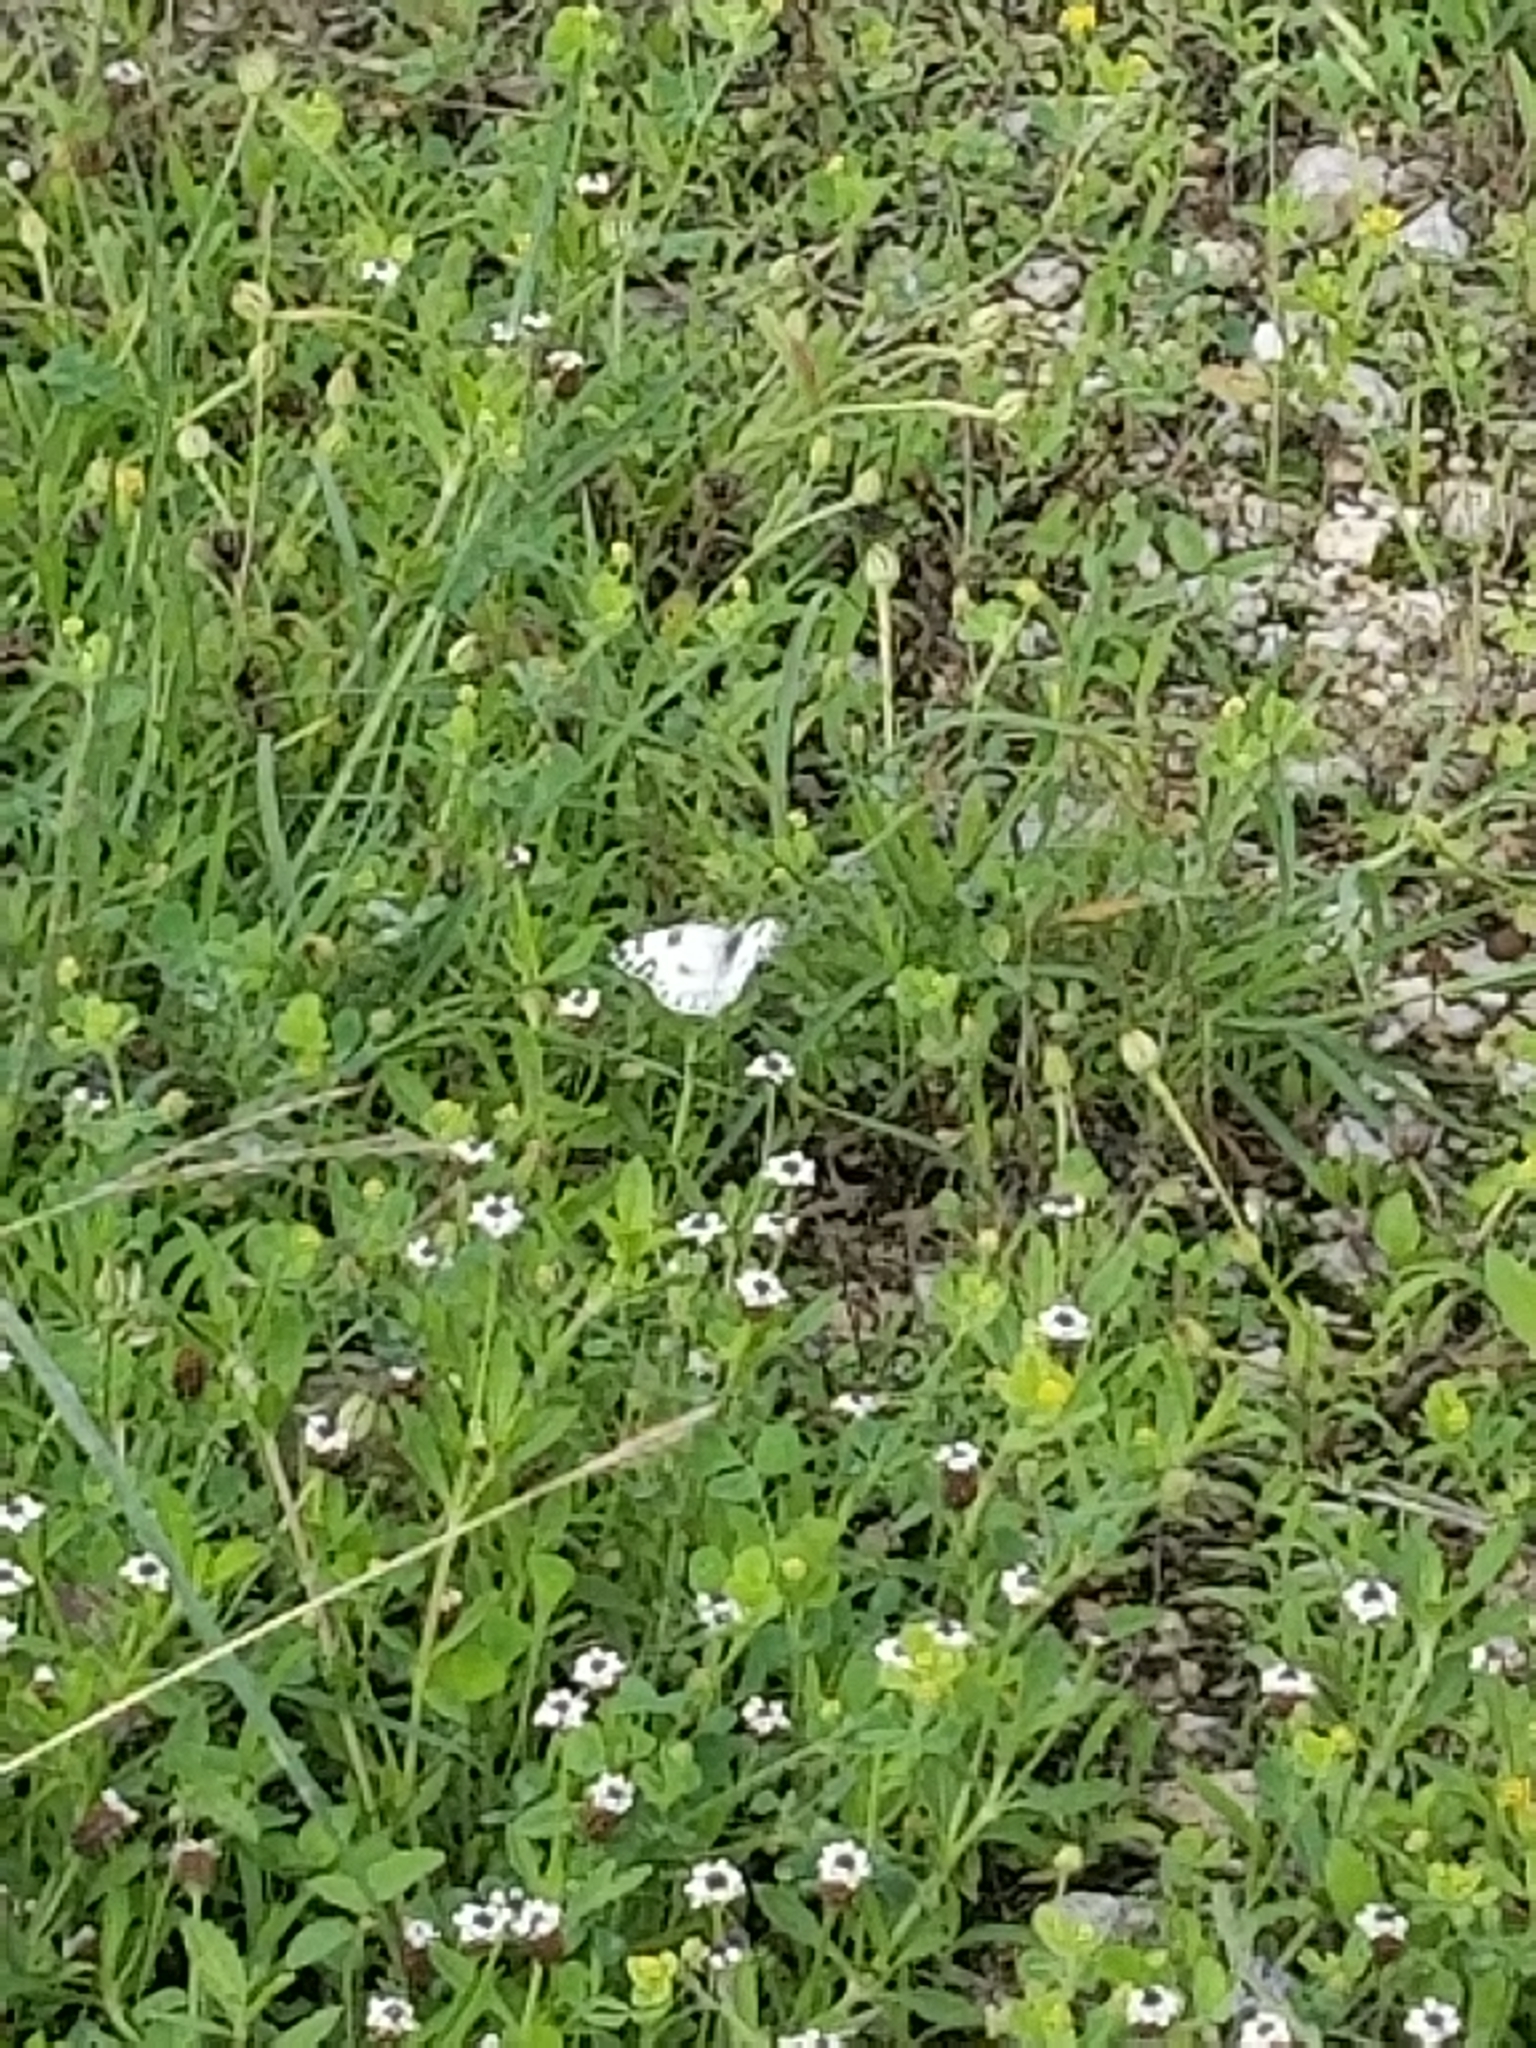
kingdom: Animalia
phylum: Arthropoda
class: Insecta
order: Lepidoptera
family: Pieridae
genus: Pontia
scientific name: Pontia protodice
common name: Checkered white
